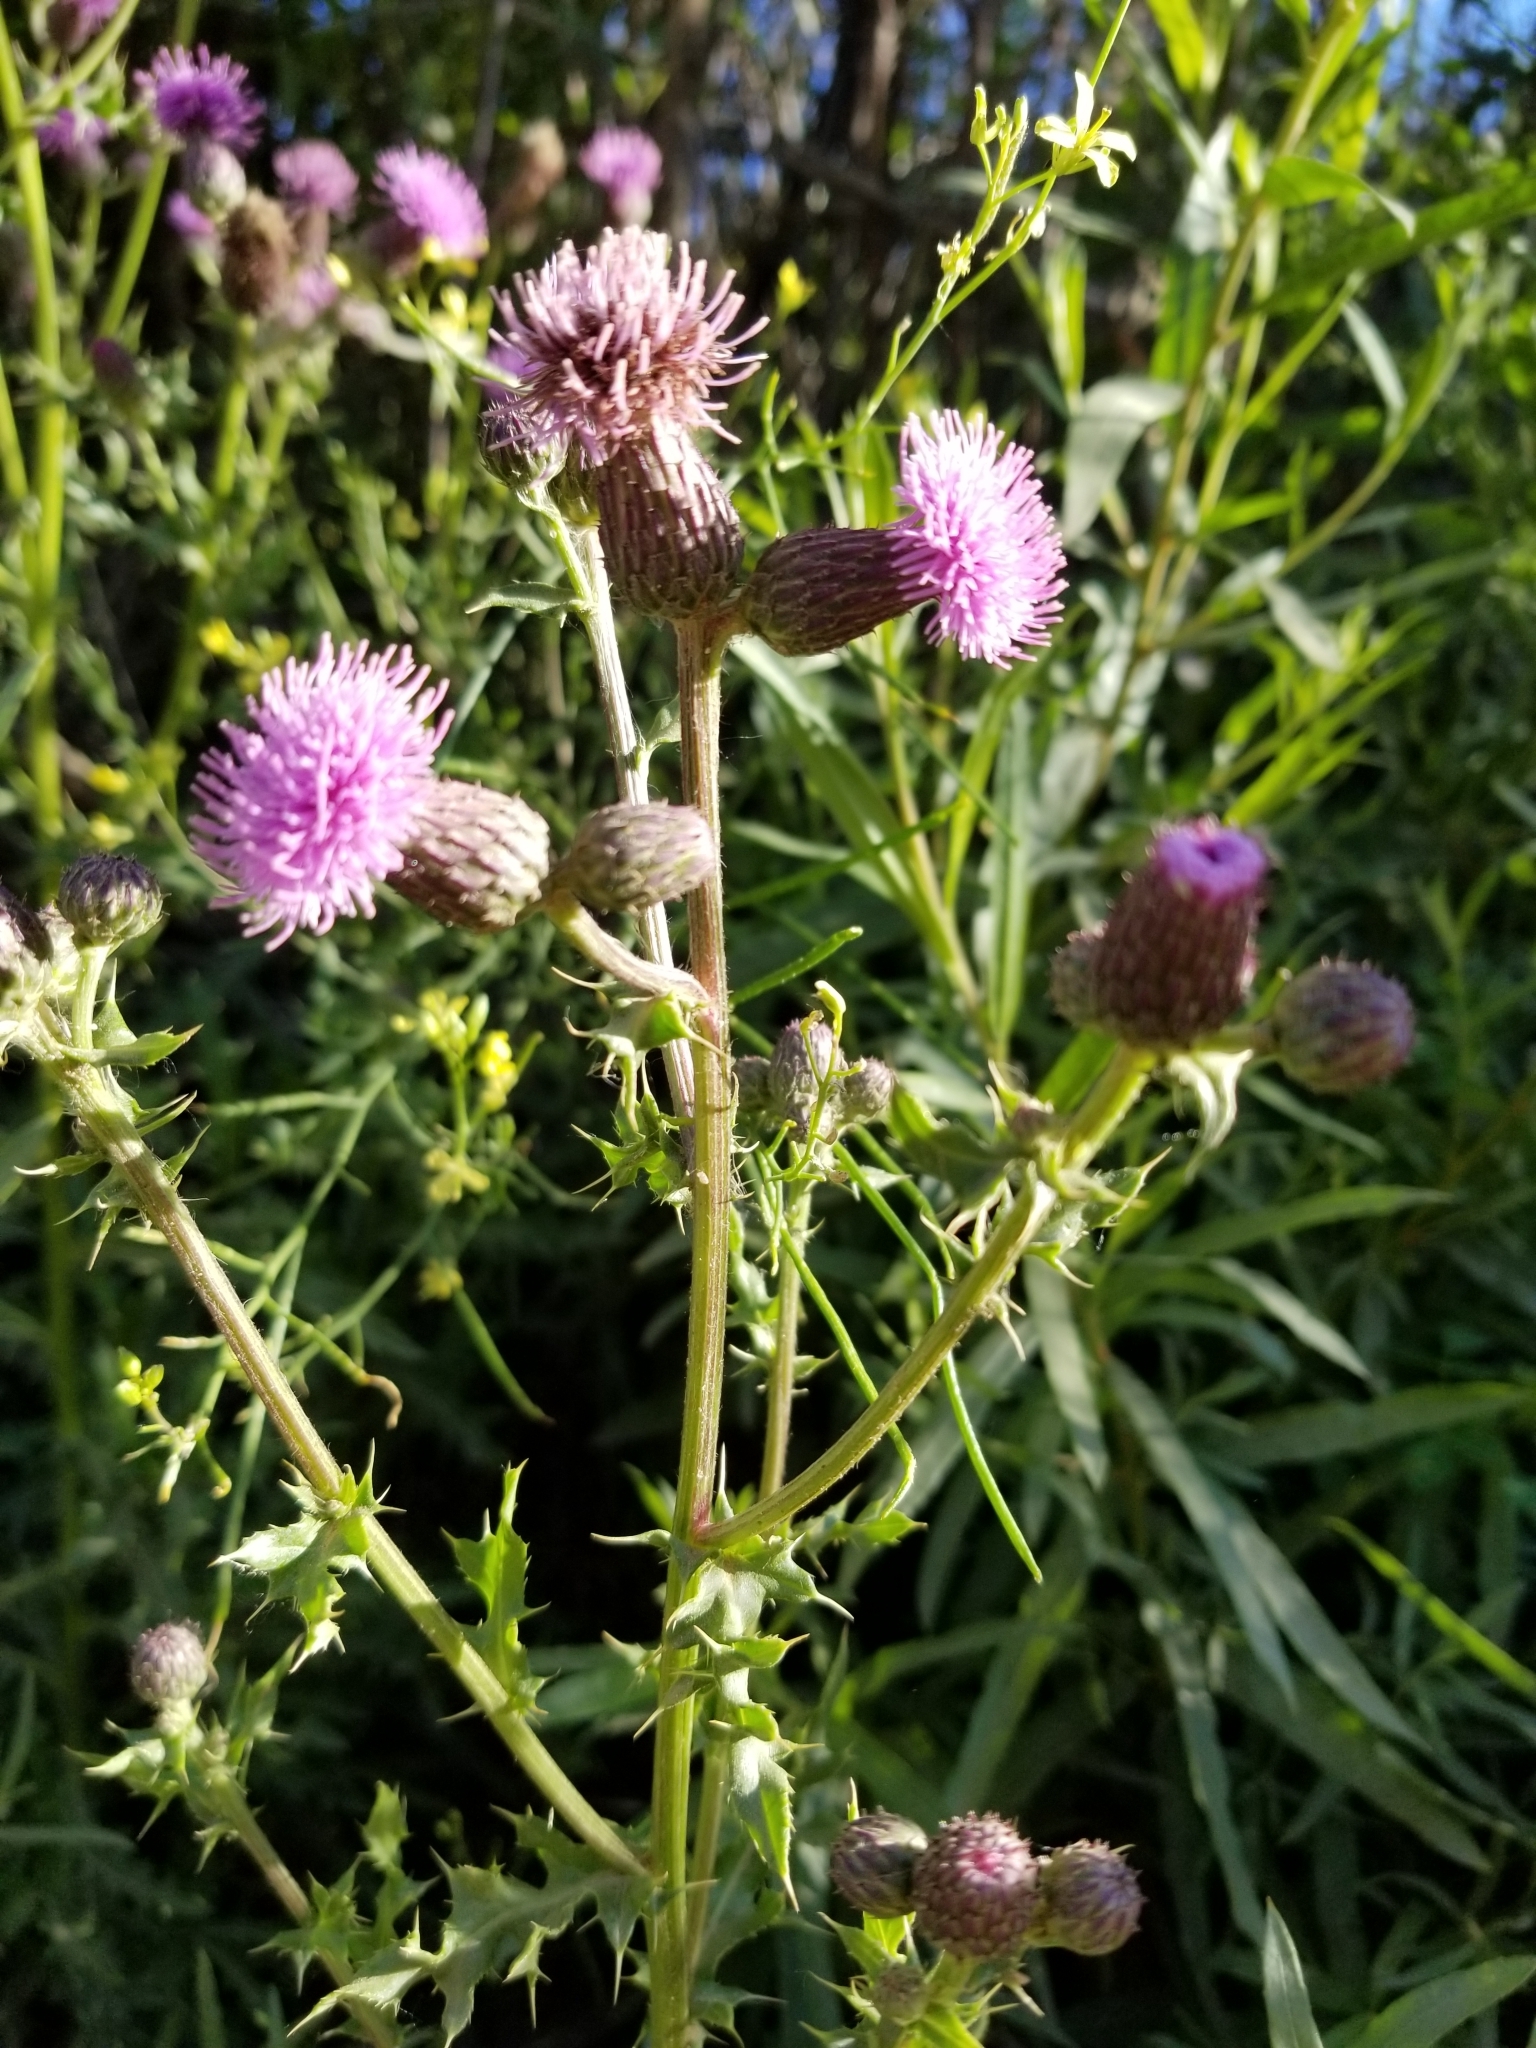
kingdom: Plantae
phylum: Tracheophyta
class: Magnoliopsida
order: Asterales
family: Asteraceae
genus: Cirsium
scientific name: Cirsium arvense
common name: Creeping thistle
